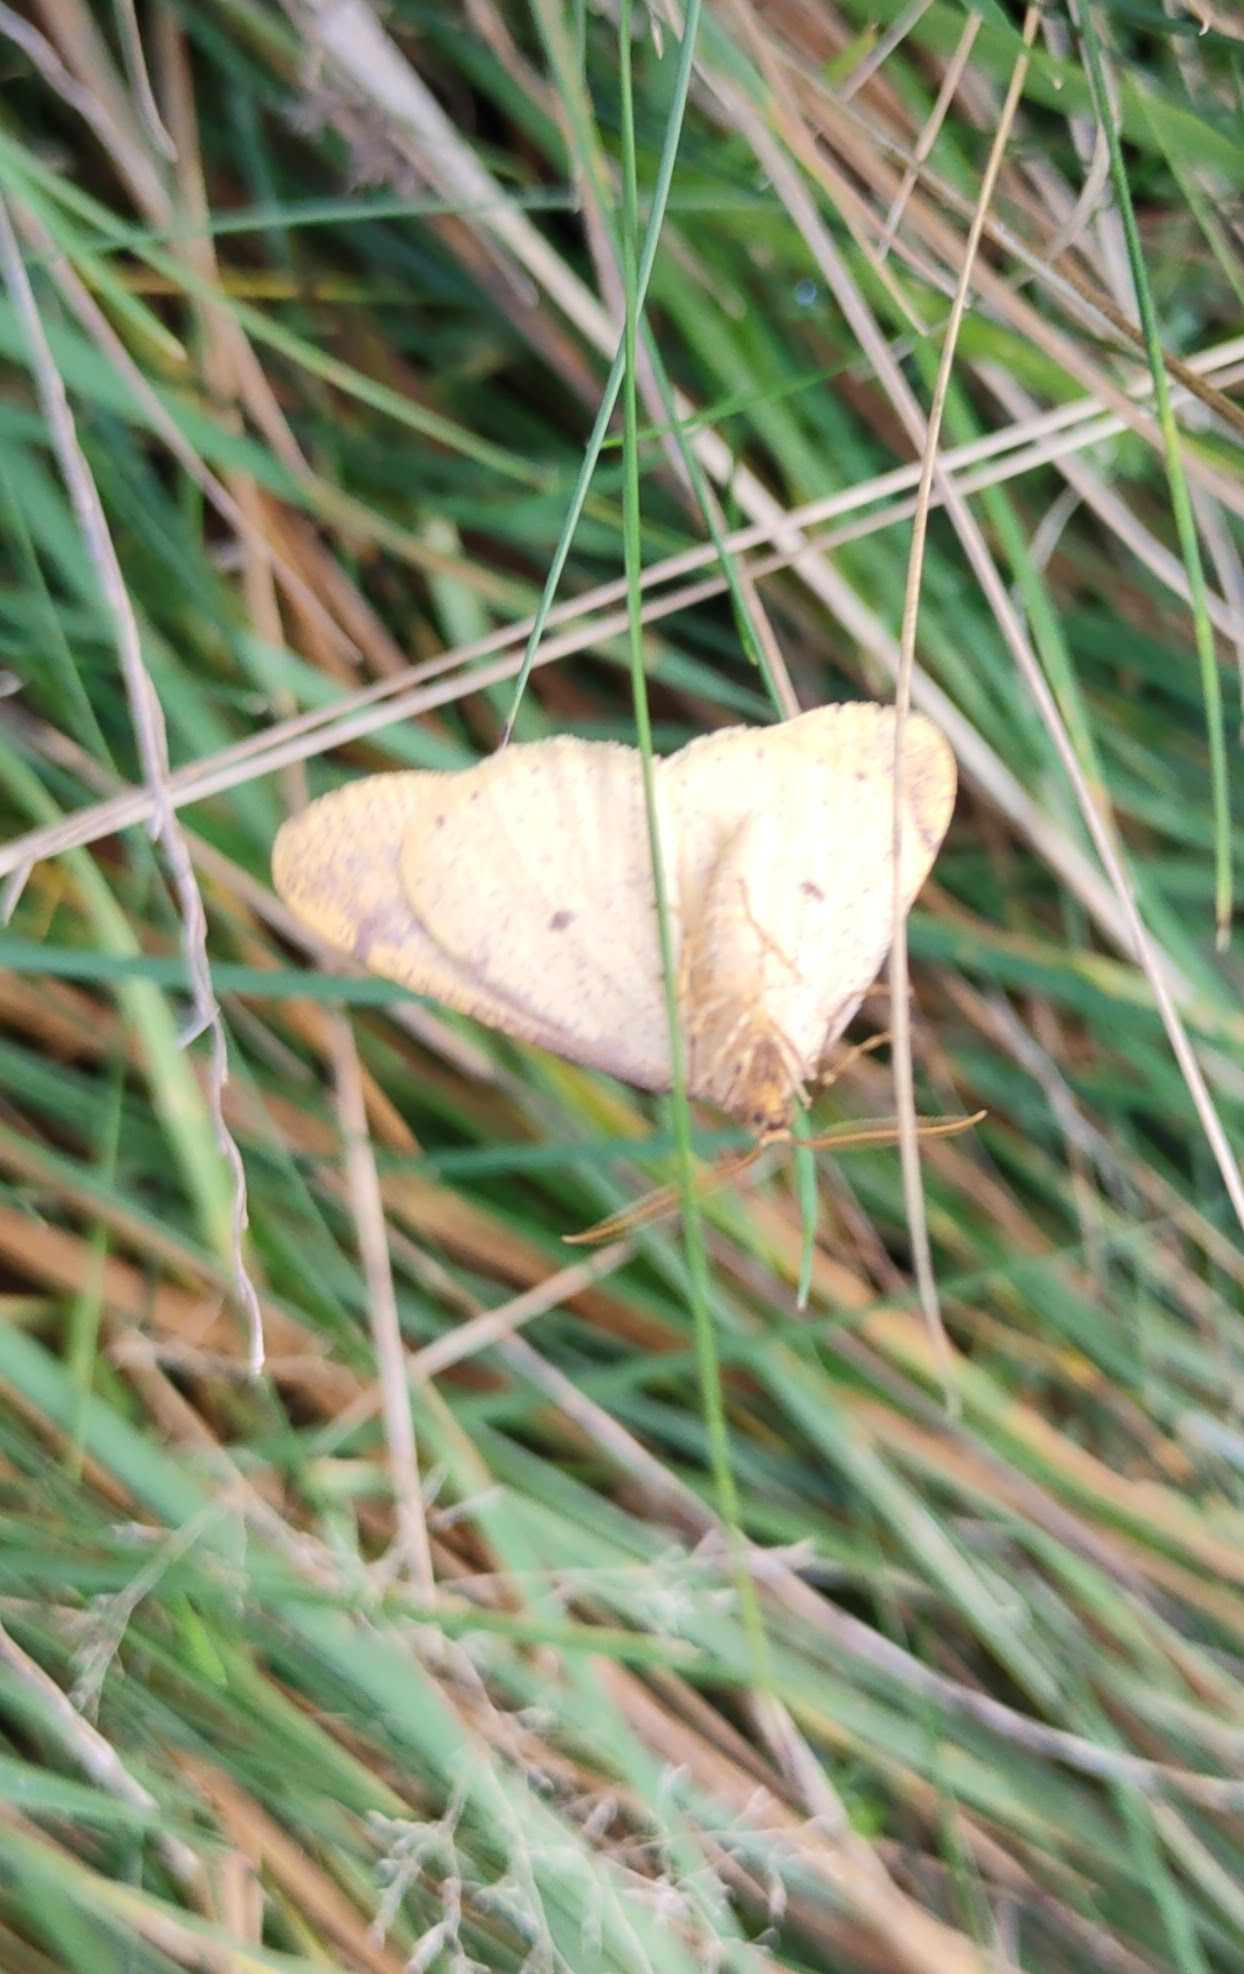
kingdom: Animalia
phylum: Arthropoda
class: Insecta
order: Lepidoptera
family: Geometridae
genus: Agriopis
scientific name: Agriopis aurantiaria
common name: Scarce umber
